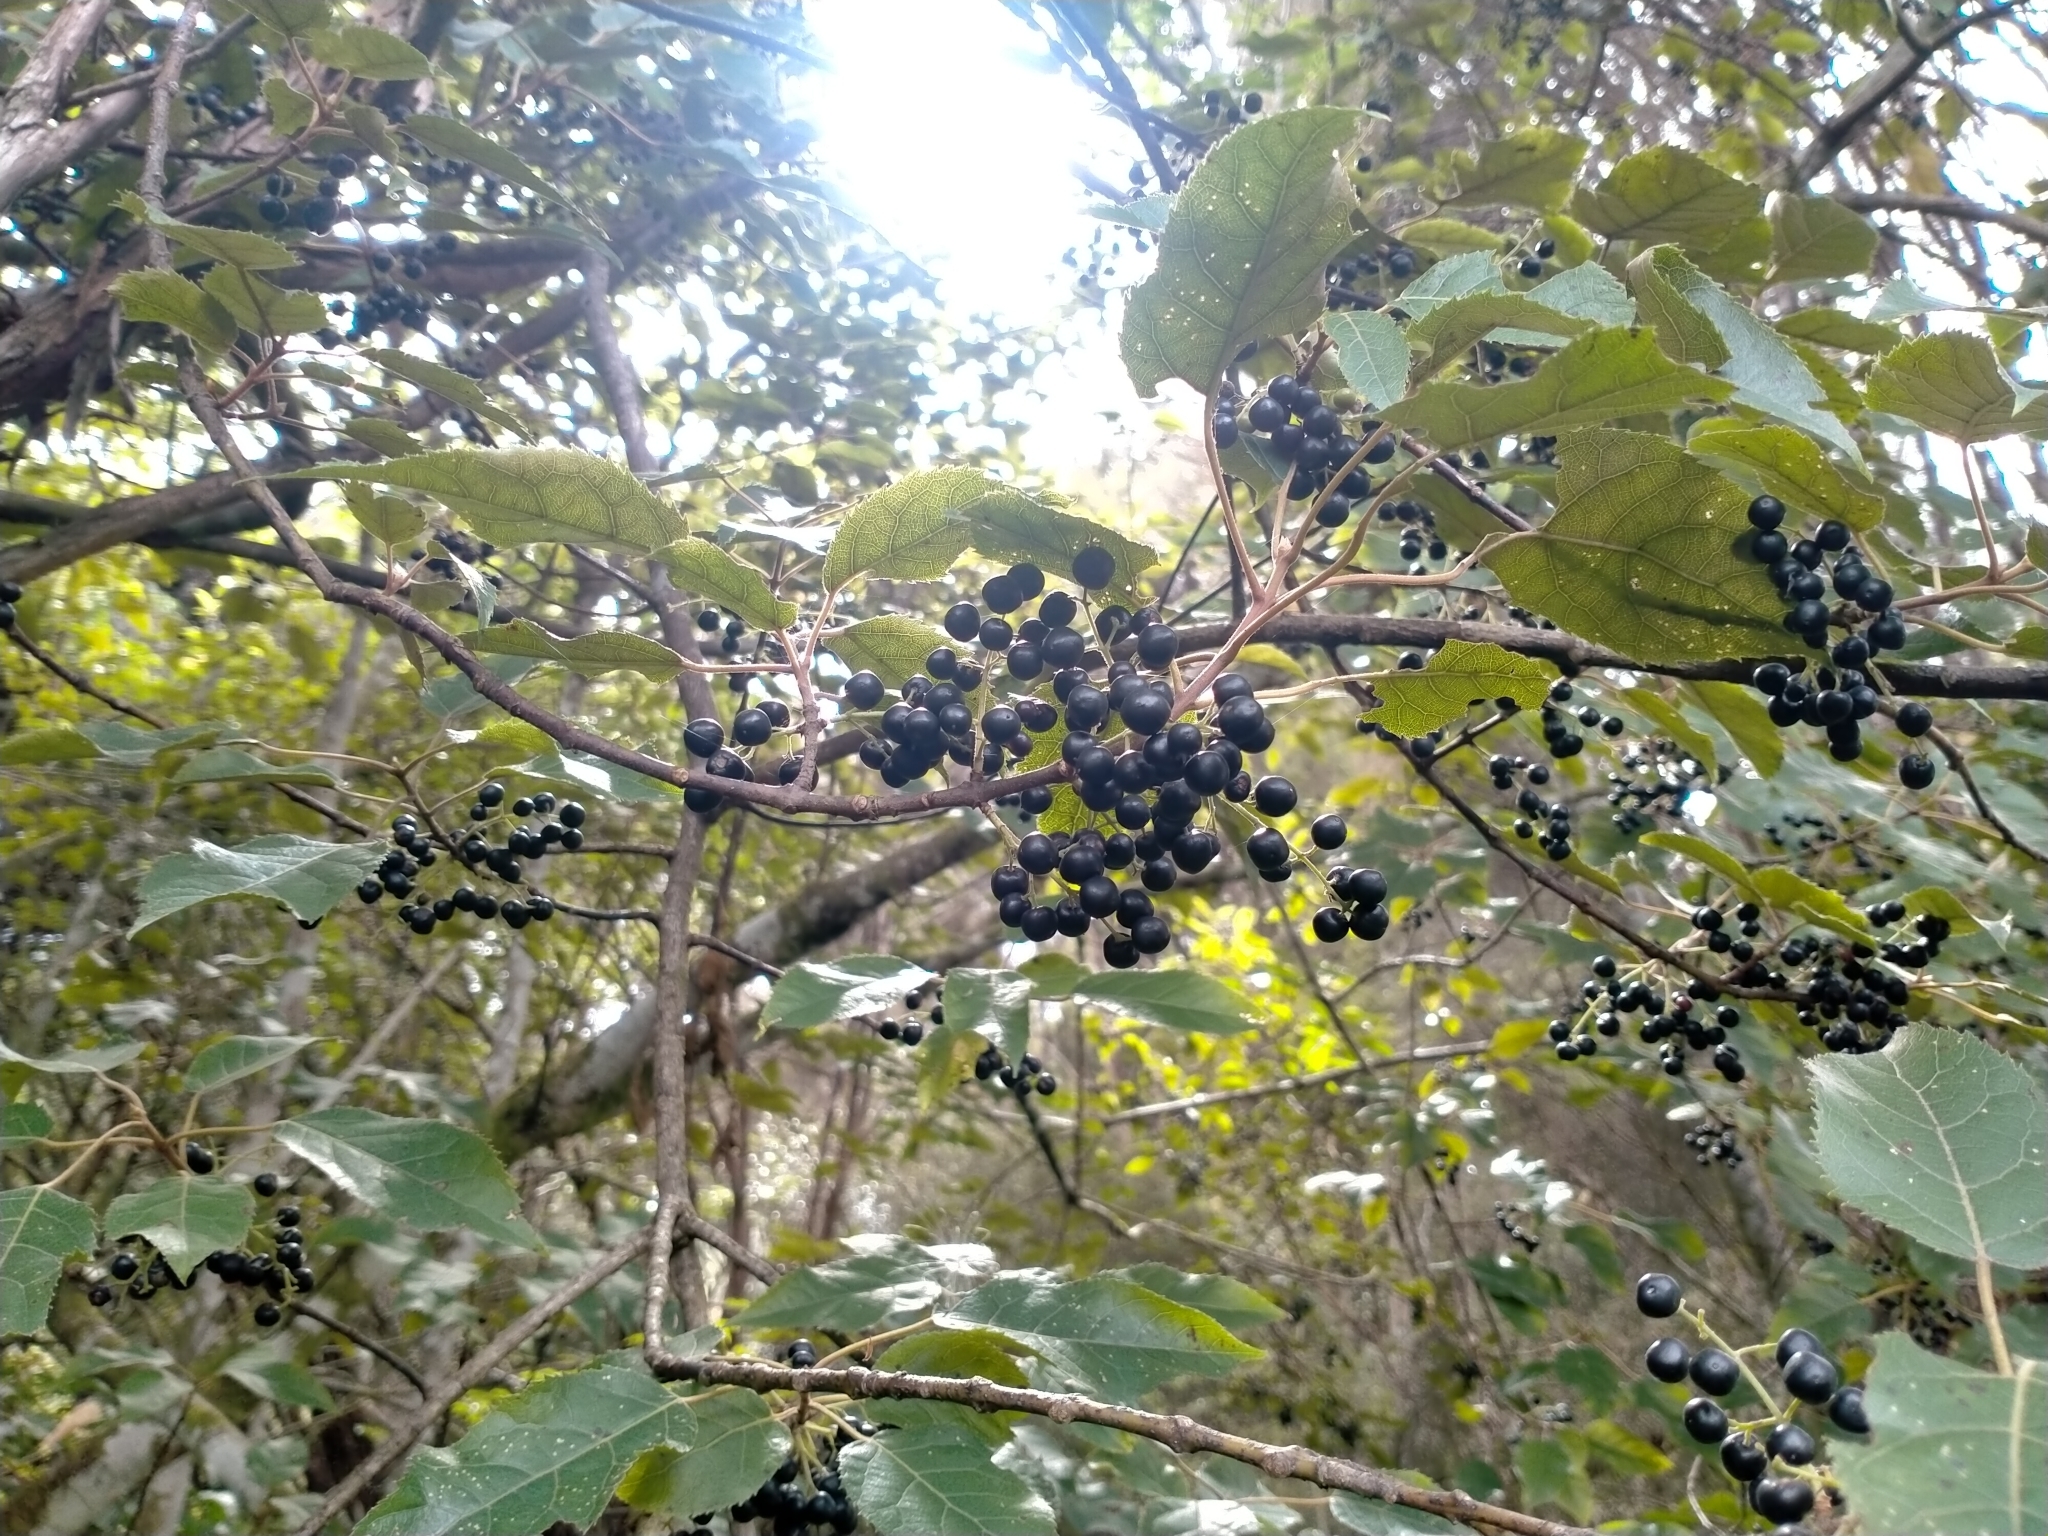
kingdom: Plantae
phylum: Tracheophyta
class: Magnoliopsida
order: Oxalidales
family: Elaeocarpaceae
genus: Aristotelia
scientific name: Aristotelia serrata
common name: New zealand wineberry
